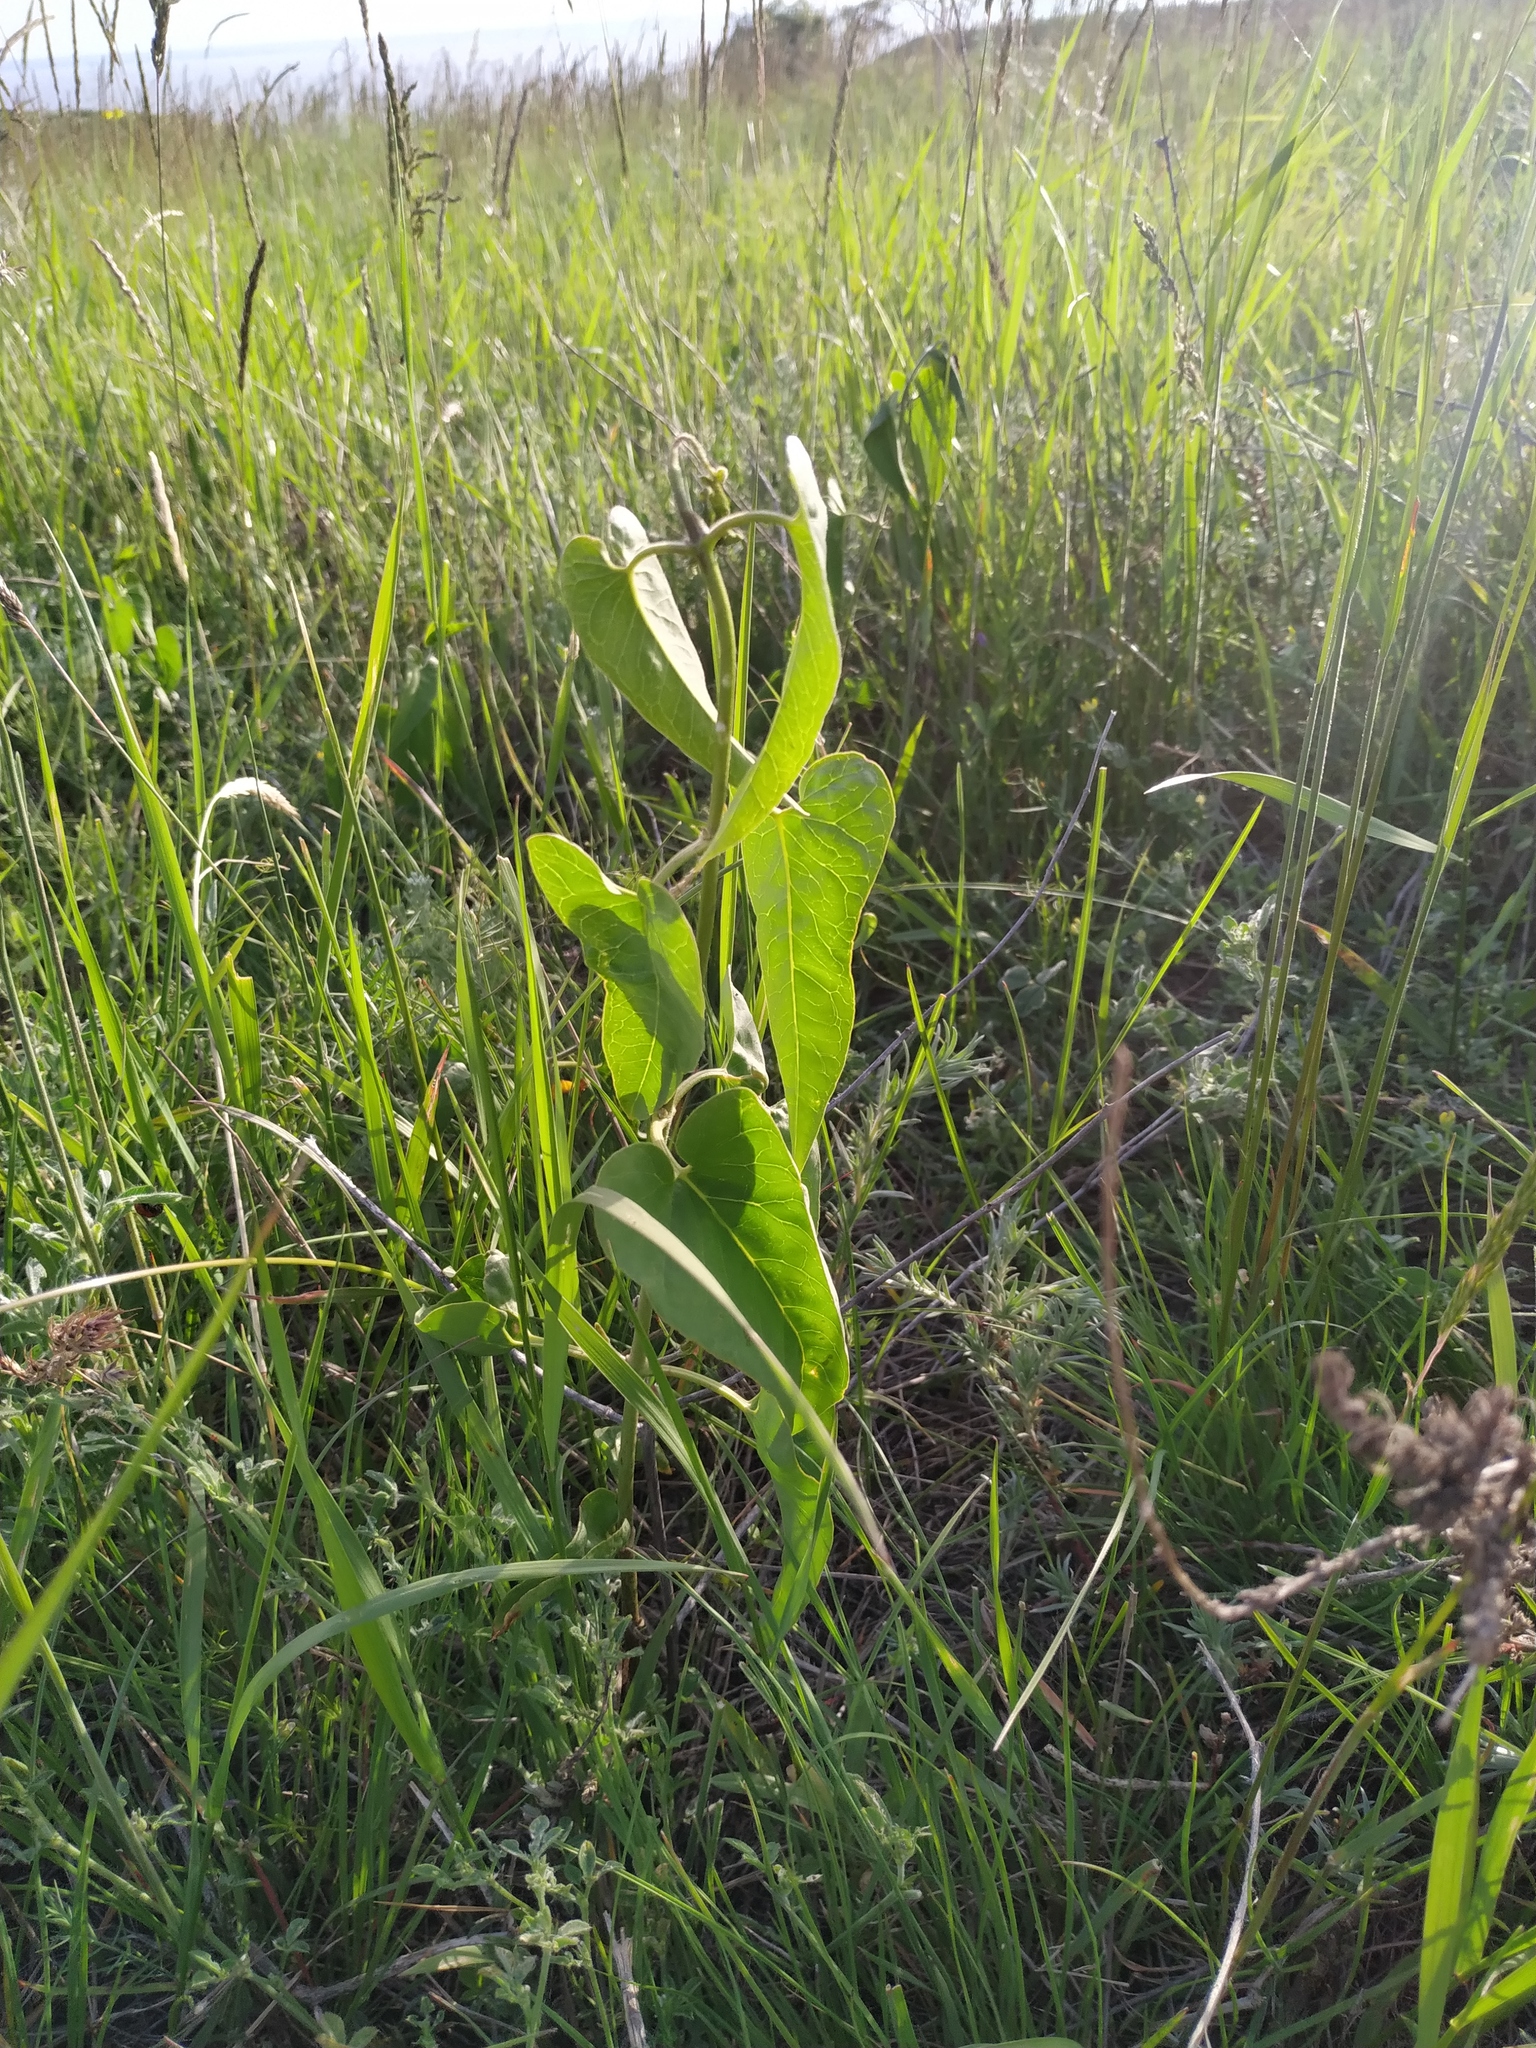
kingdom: Plantae
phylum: Tracheophyta
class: Magnoliopsida
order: Piperales
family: Aristolochiaceae
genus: Aristolochia
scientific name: Aristolochia clematitis
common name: Birthwort
